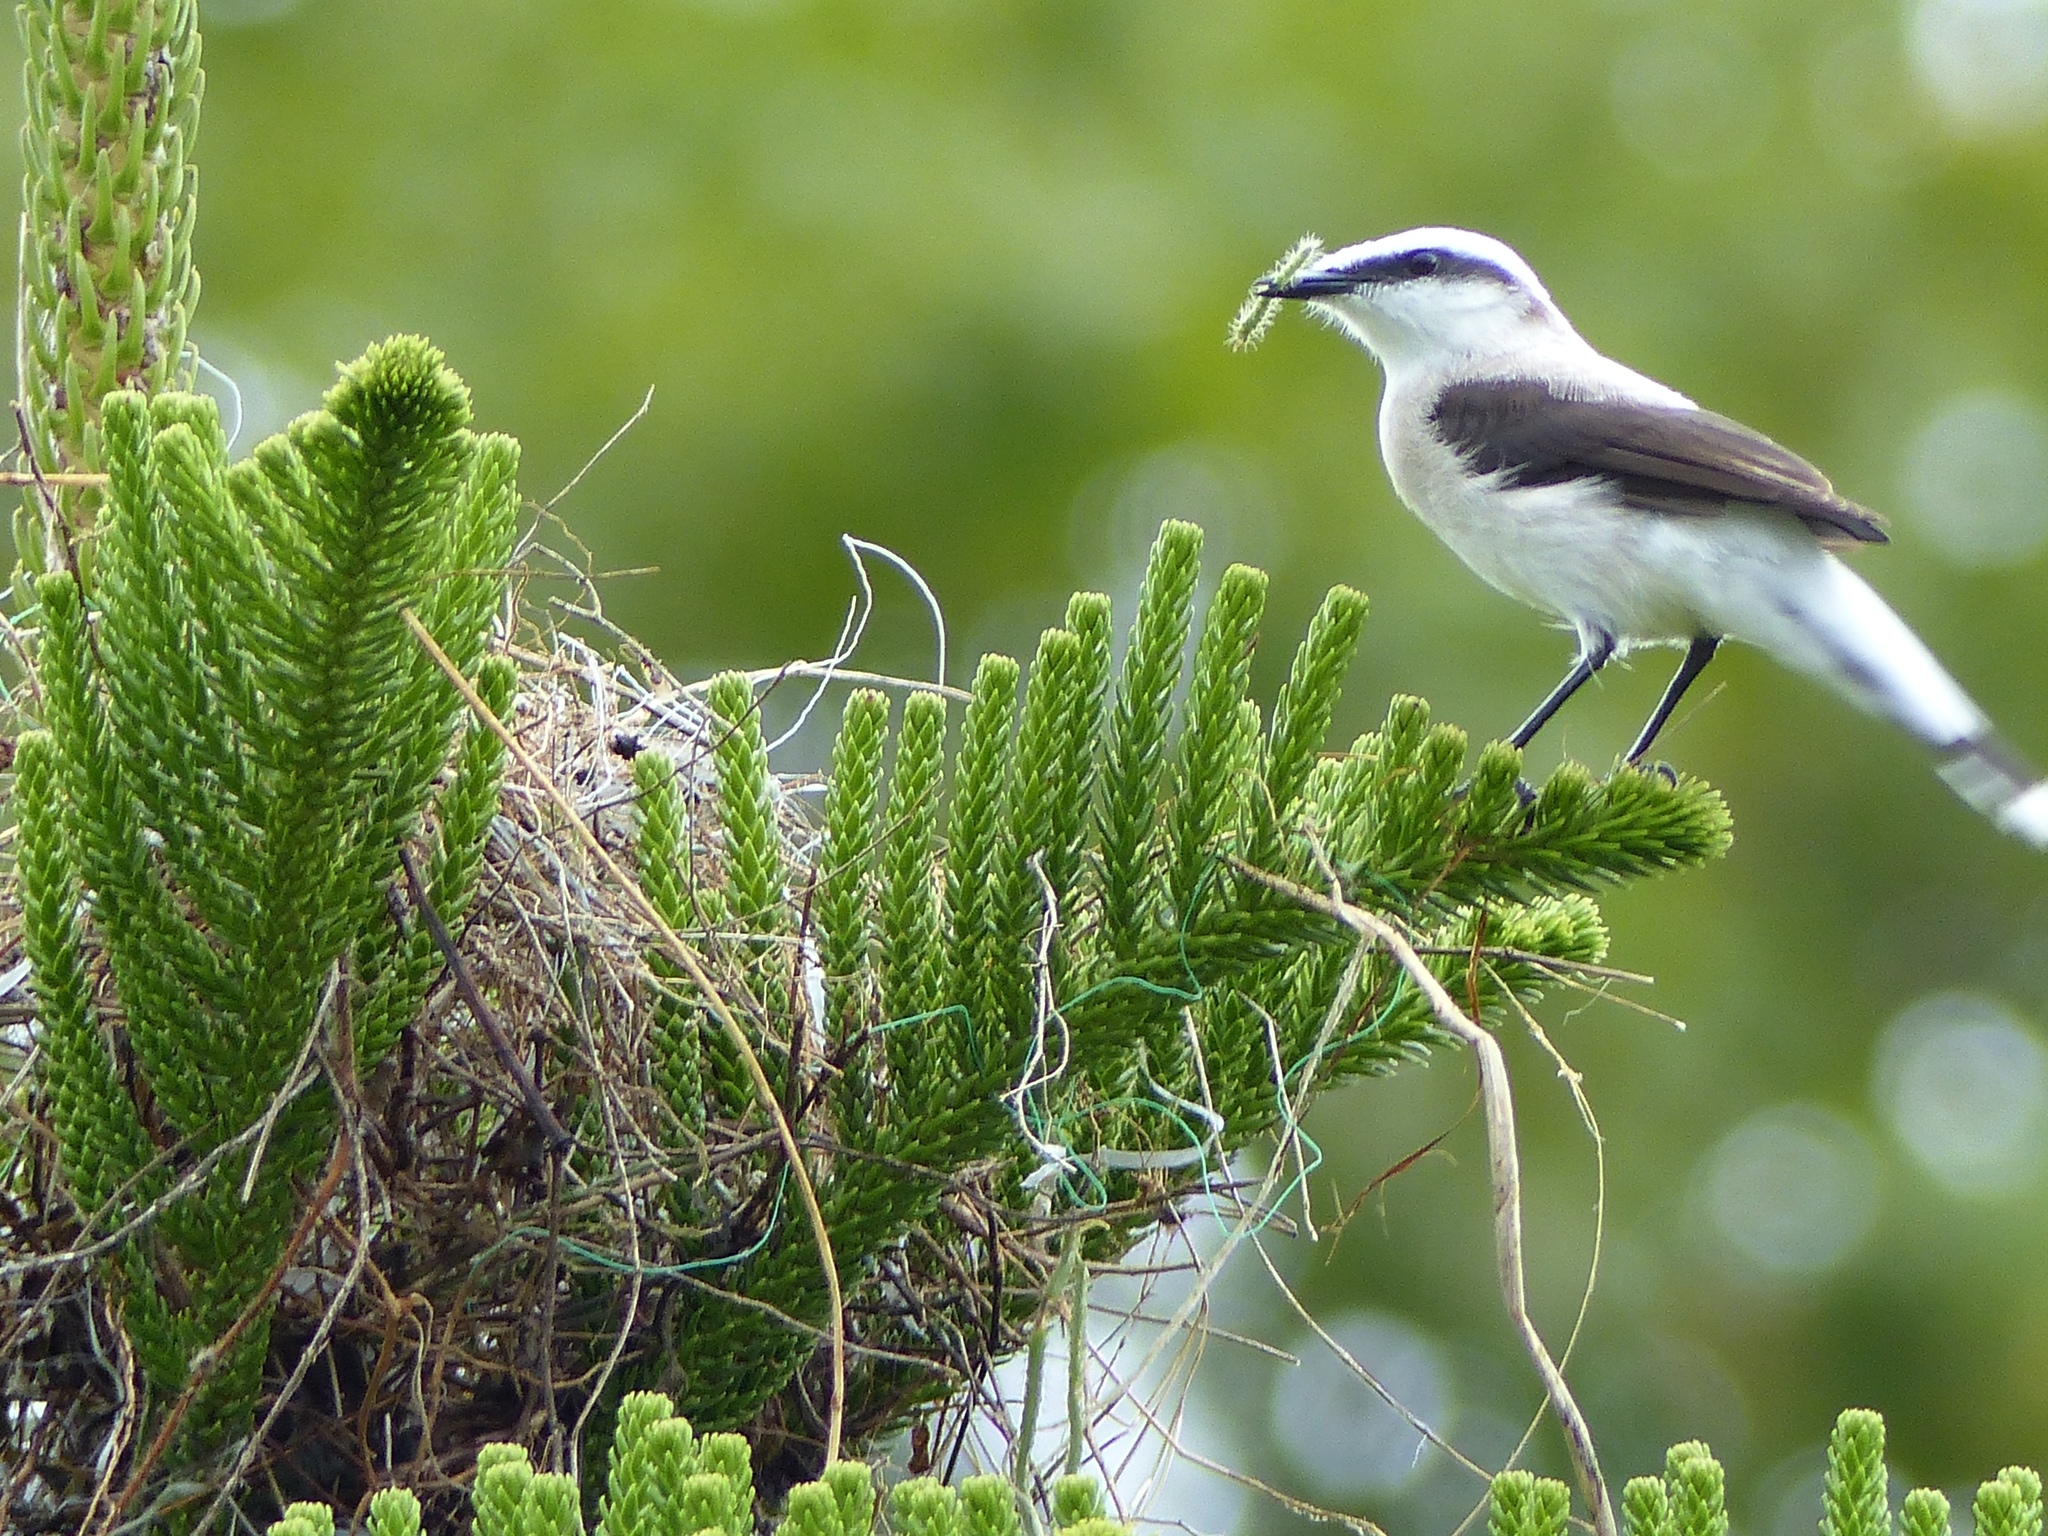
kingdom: Animalia
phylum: Chordata
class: Aves
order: Passeriformes
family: Tyrannidae
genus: Fluvicola
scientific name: Fluvicola nengeta
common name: Masked water tyrant
